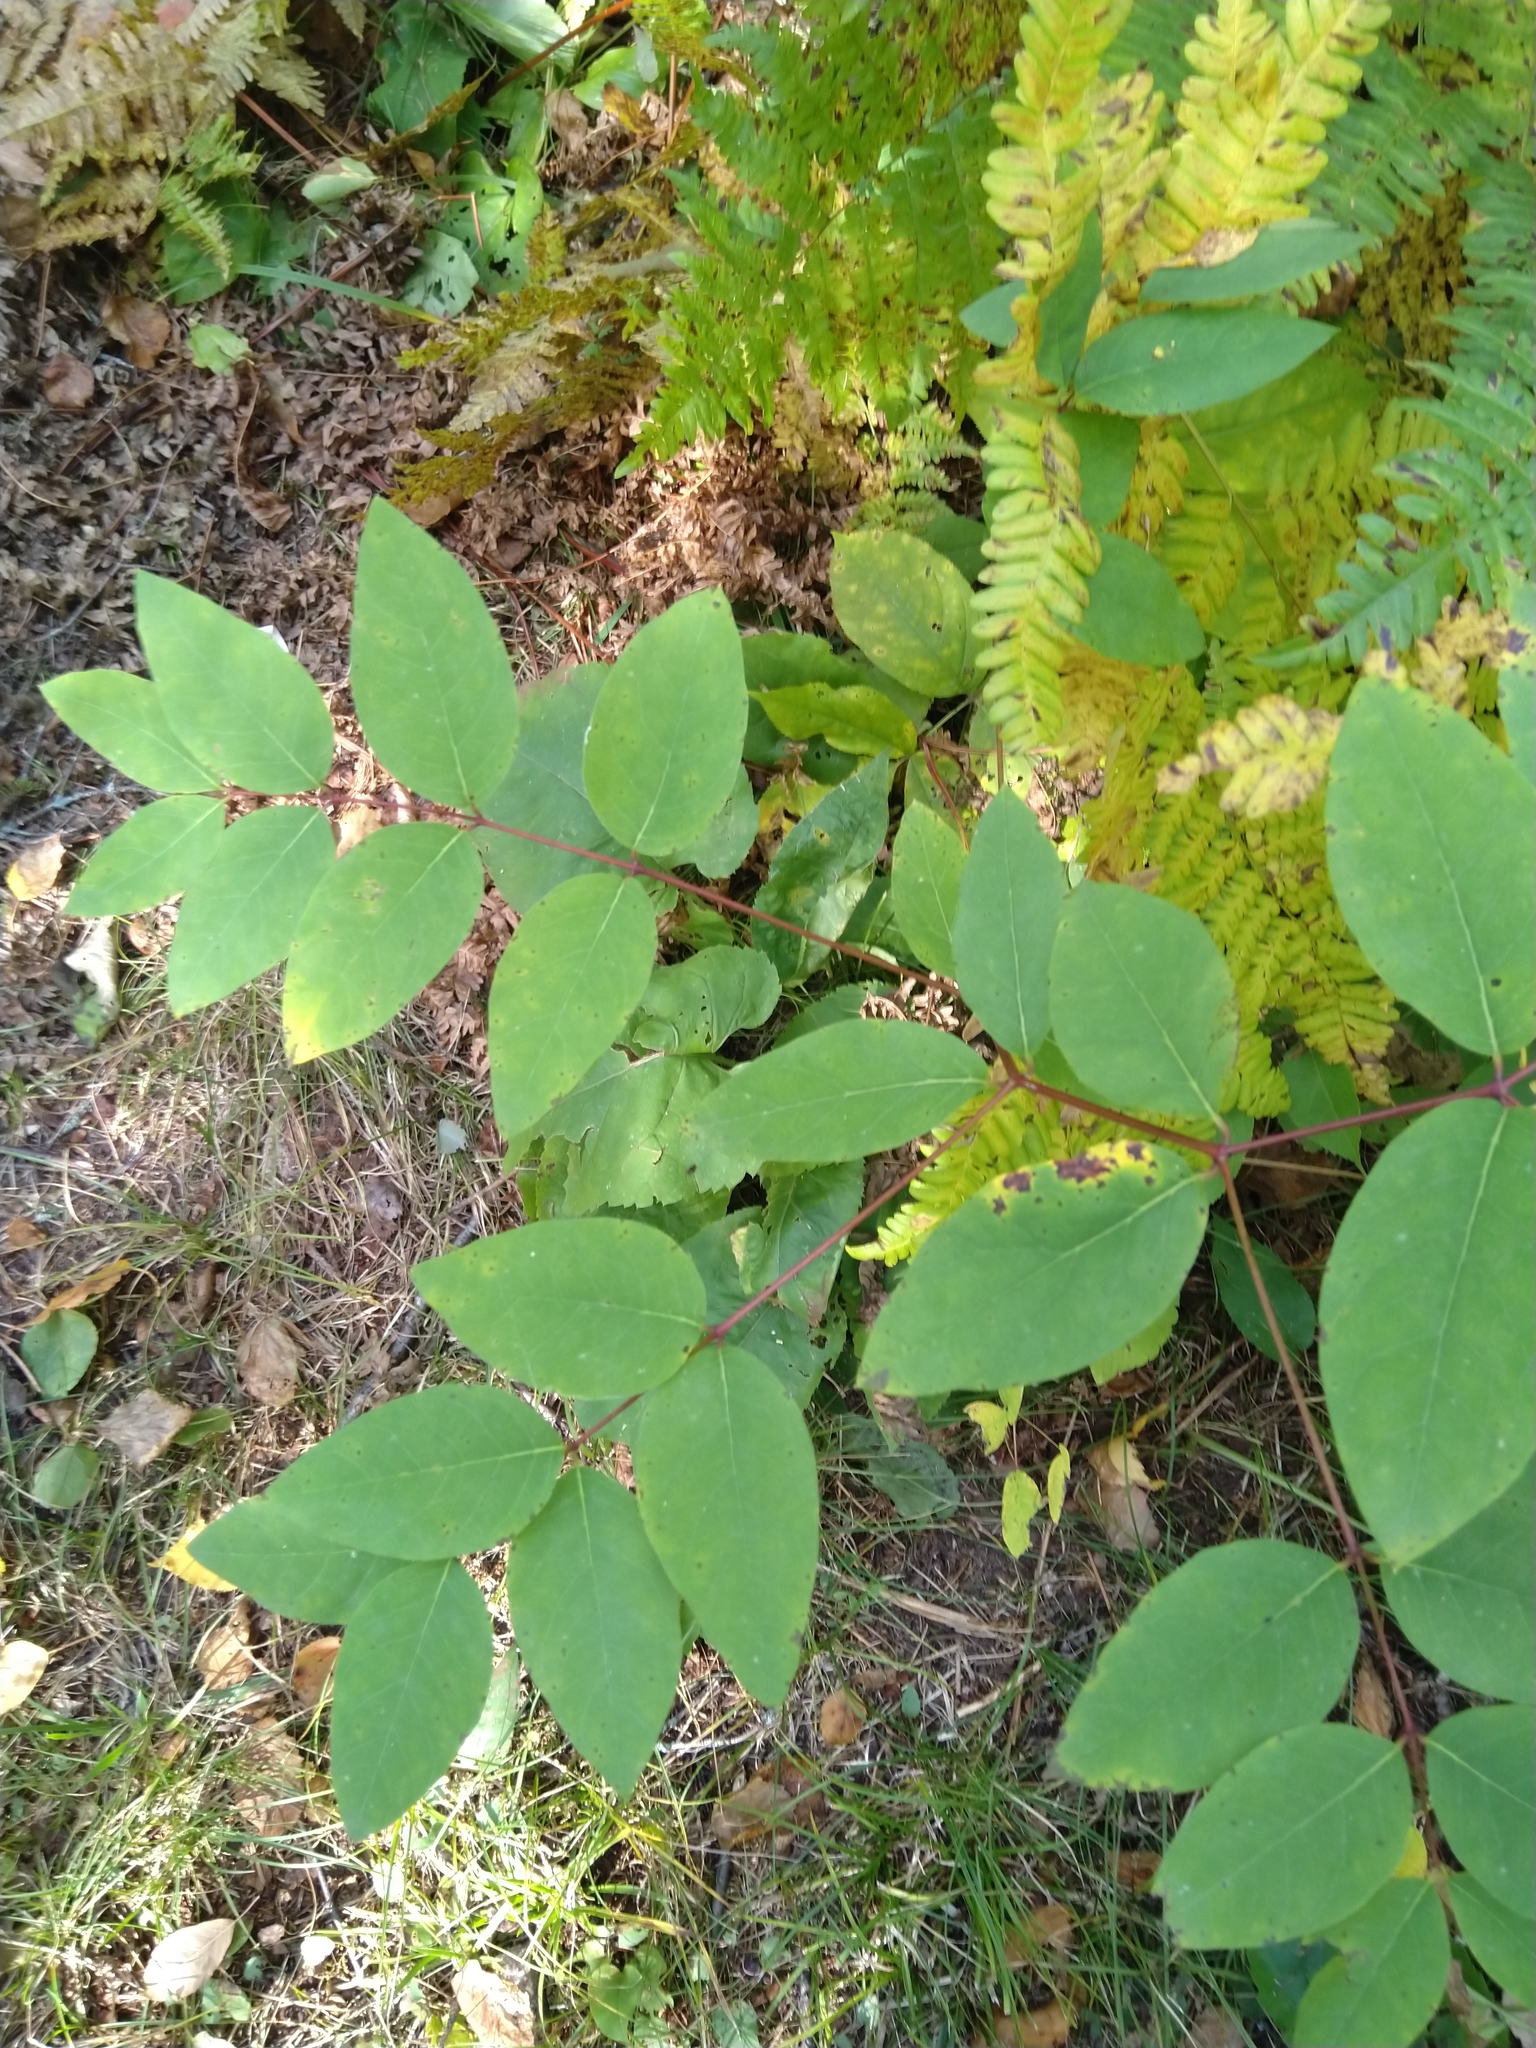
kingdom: Plantae
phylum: Tracheophyta
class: Magnoliopsida
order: Gentianales
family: Apocynaceae
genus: Apocynum
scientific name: Apocynum androsaemifolium
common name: Spreading dogbane
